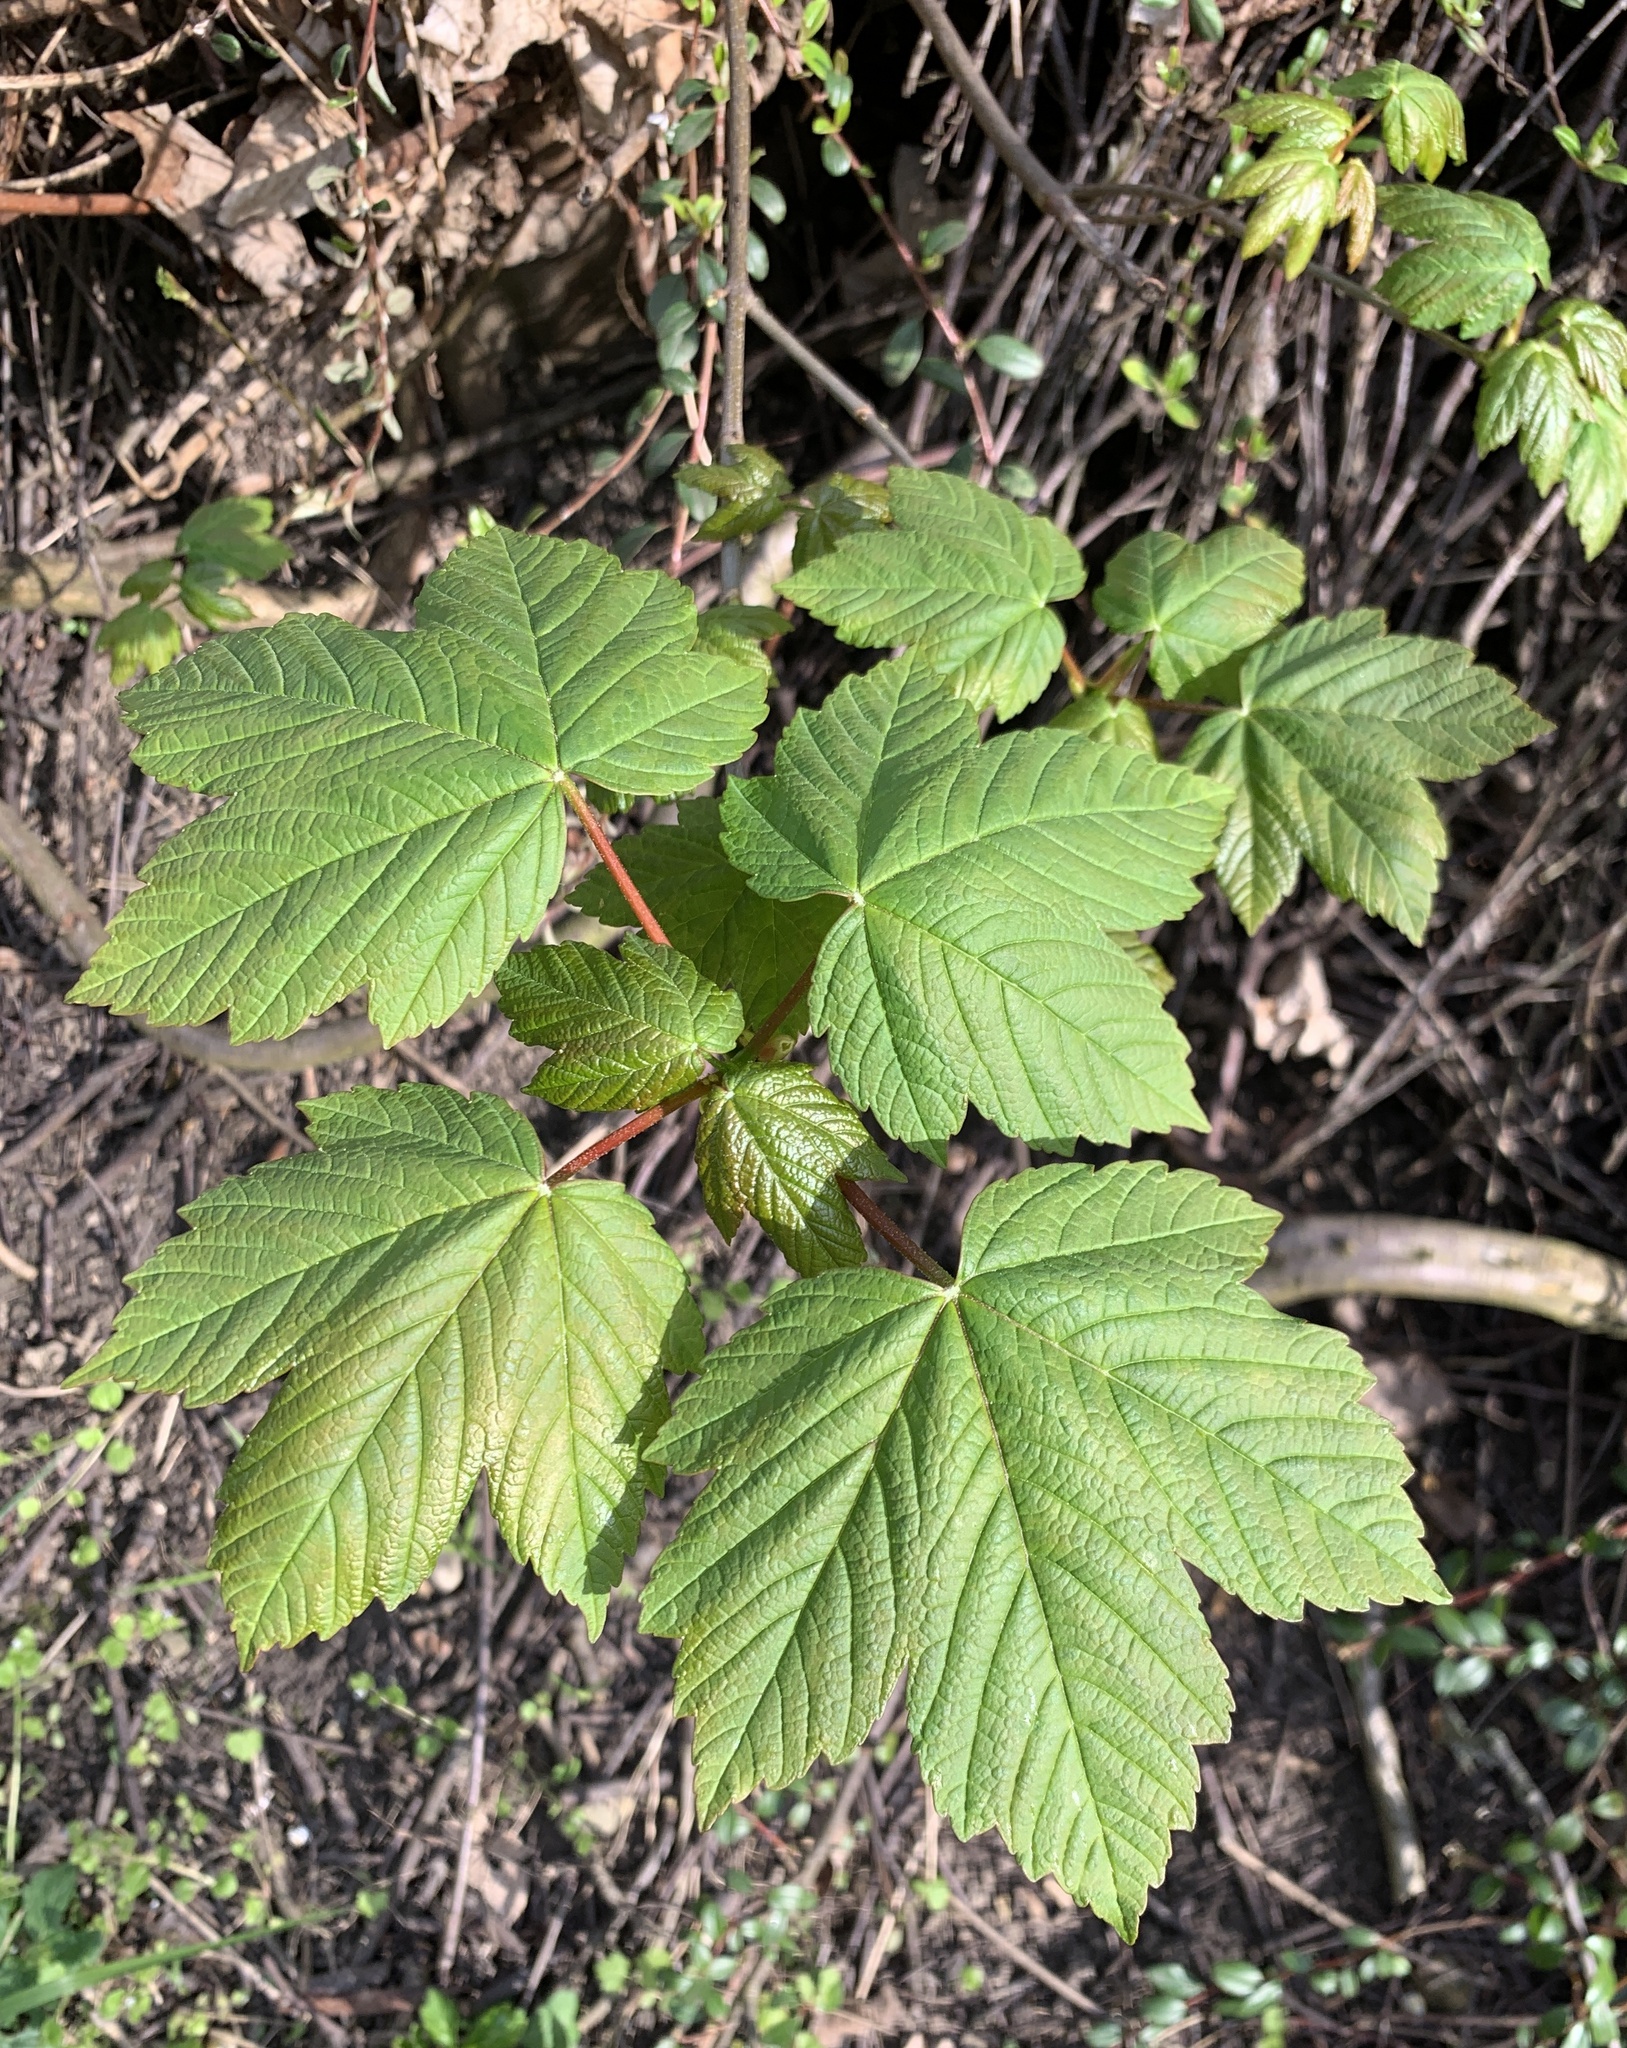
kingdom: Plantae
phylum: Tracheophyta
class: Magnoliopsida
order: Sapindales
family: Sapindaceae
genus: Acer
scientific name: Acer pseudoplatanus
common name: Sycamore
